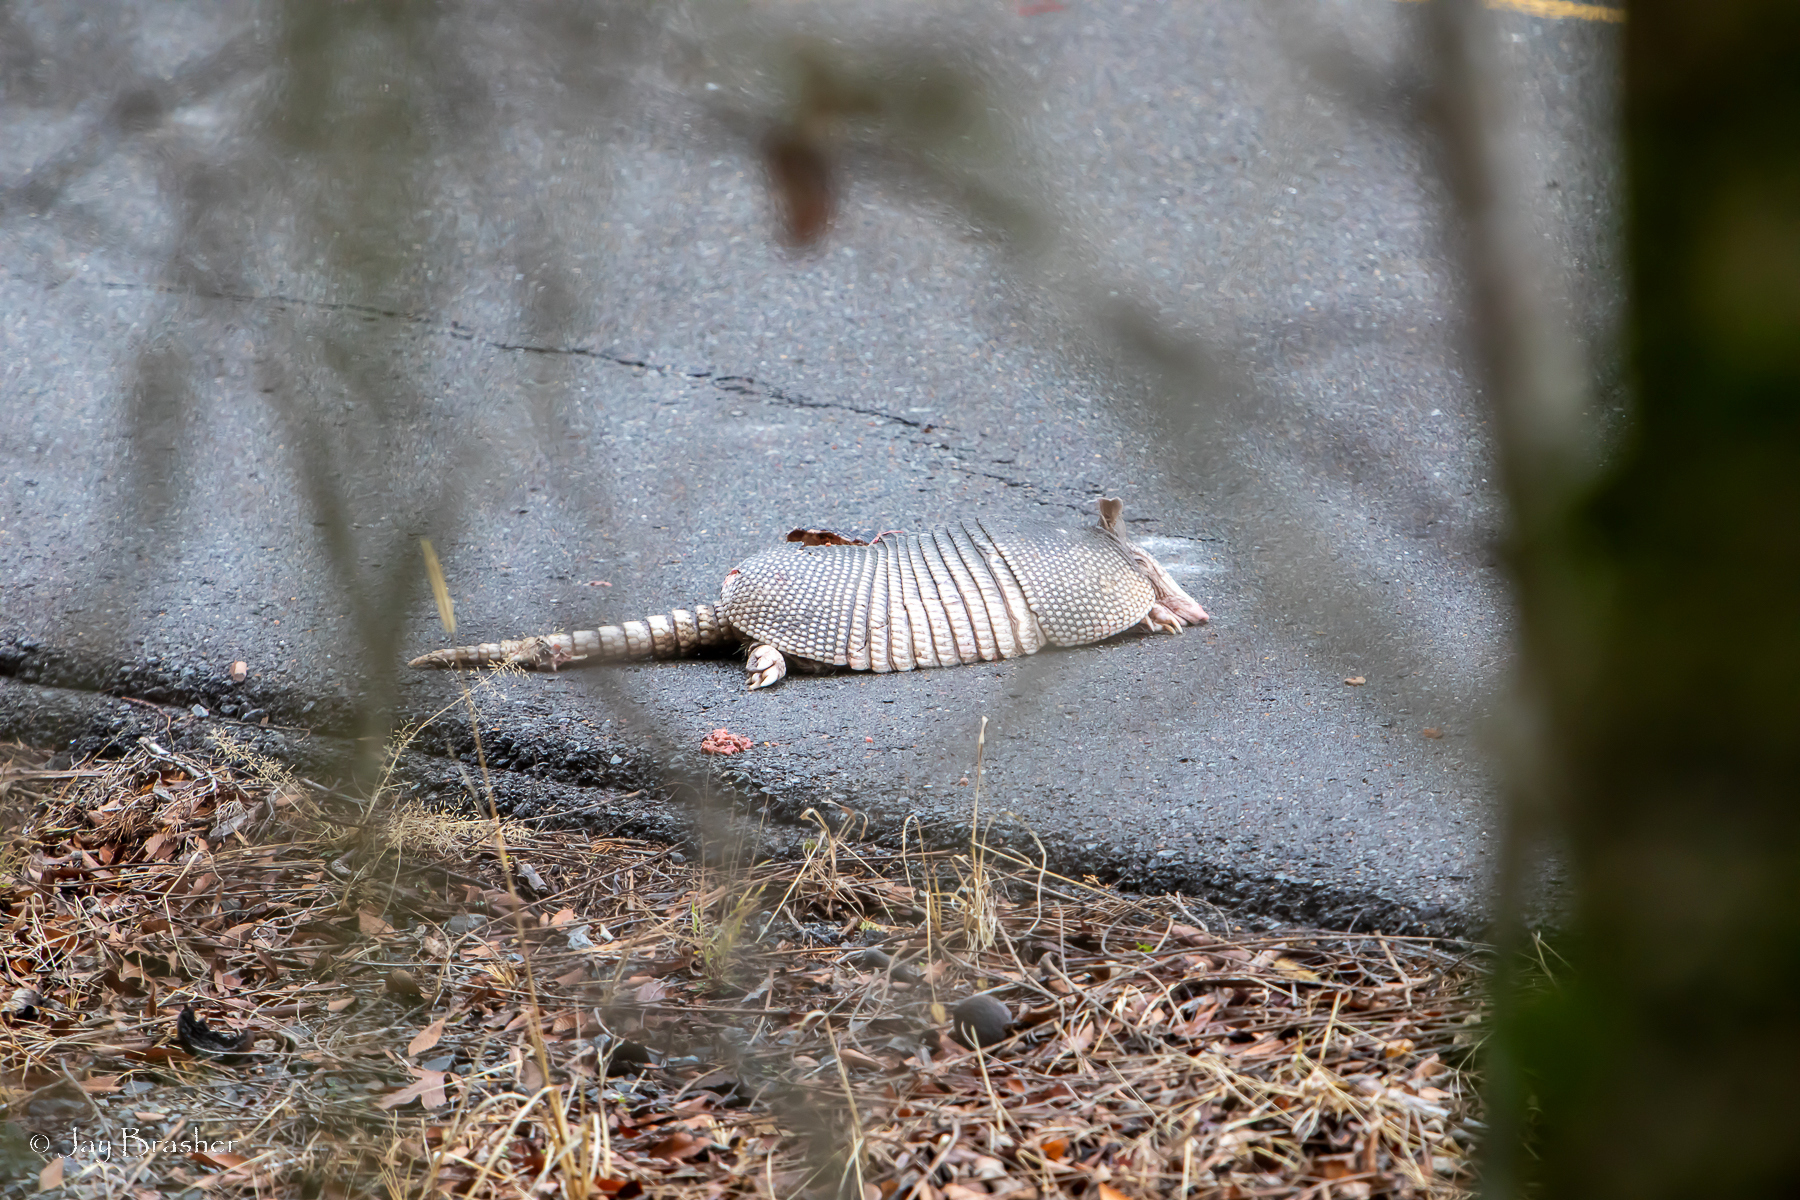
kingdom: Animalia
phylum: Chordata
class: Mammalia
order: Cingulata
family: Dasypodidae
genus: Dasypus
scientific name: Dasypus novemcinctus
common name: Nine-banded armadillo
